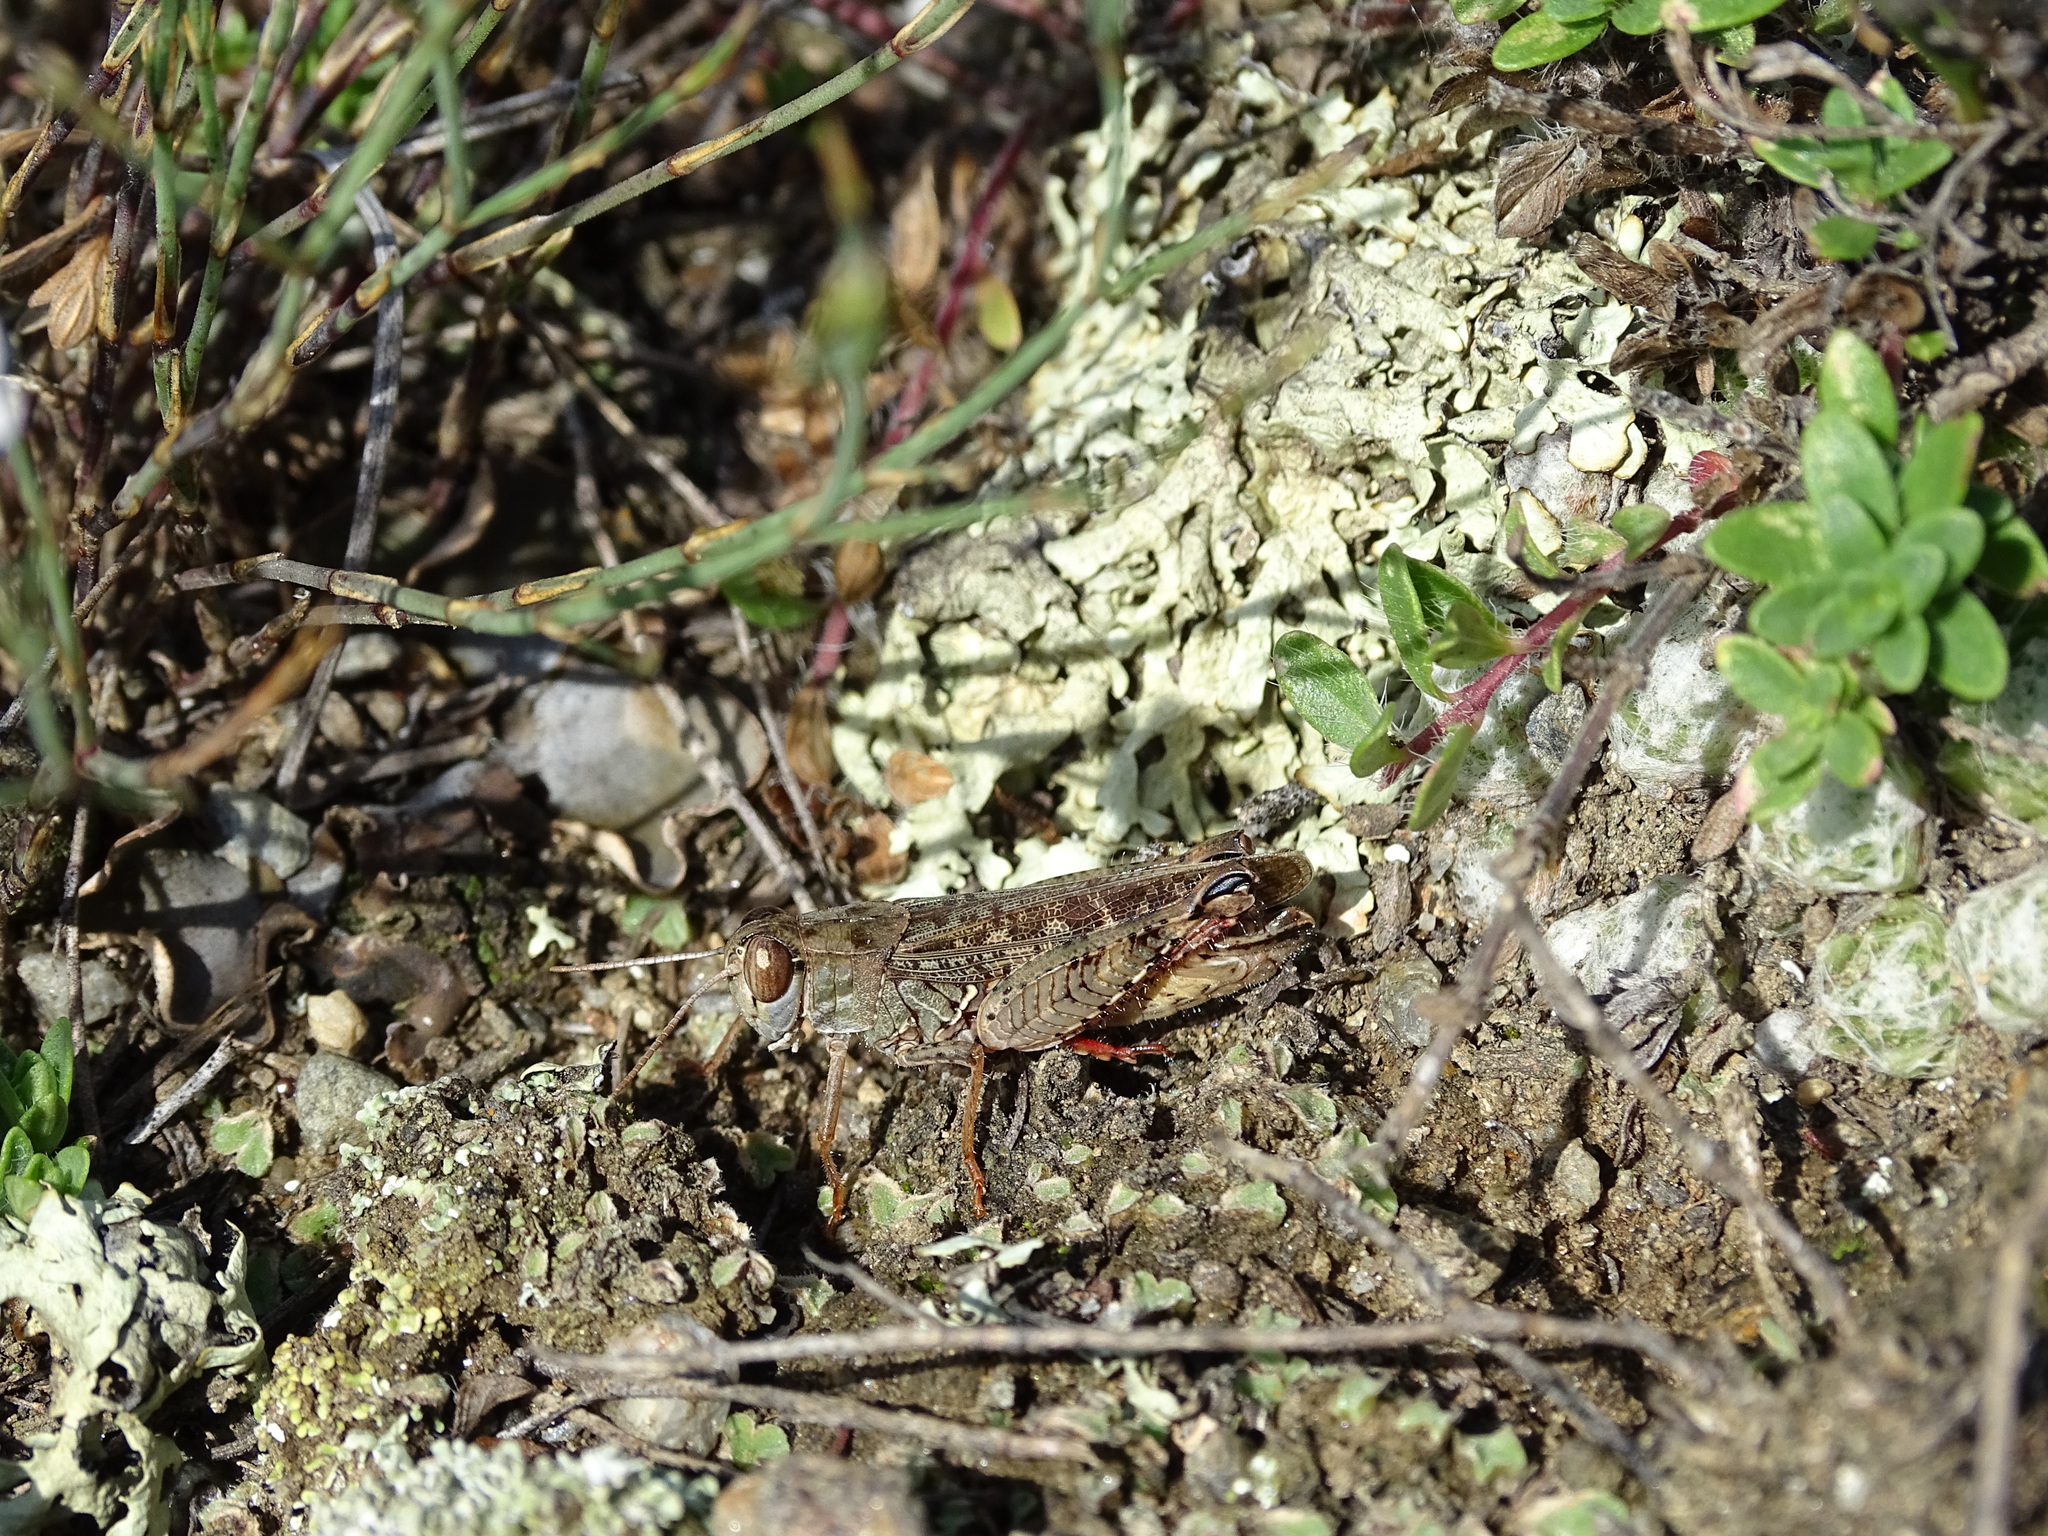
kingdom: Animalia
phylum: Arthropoda
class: Insecta
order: Orthoptera
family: Acrididae
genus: Calliptamus
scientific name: Calliptamus italicus
